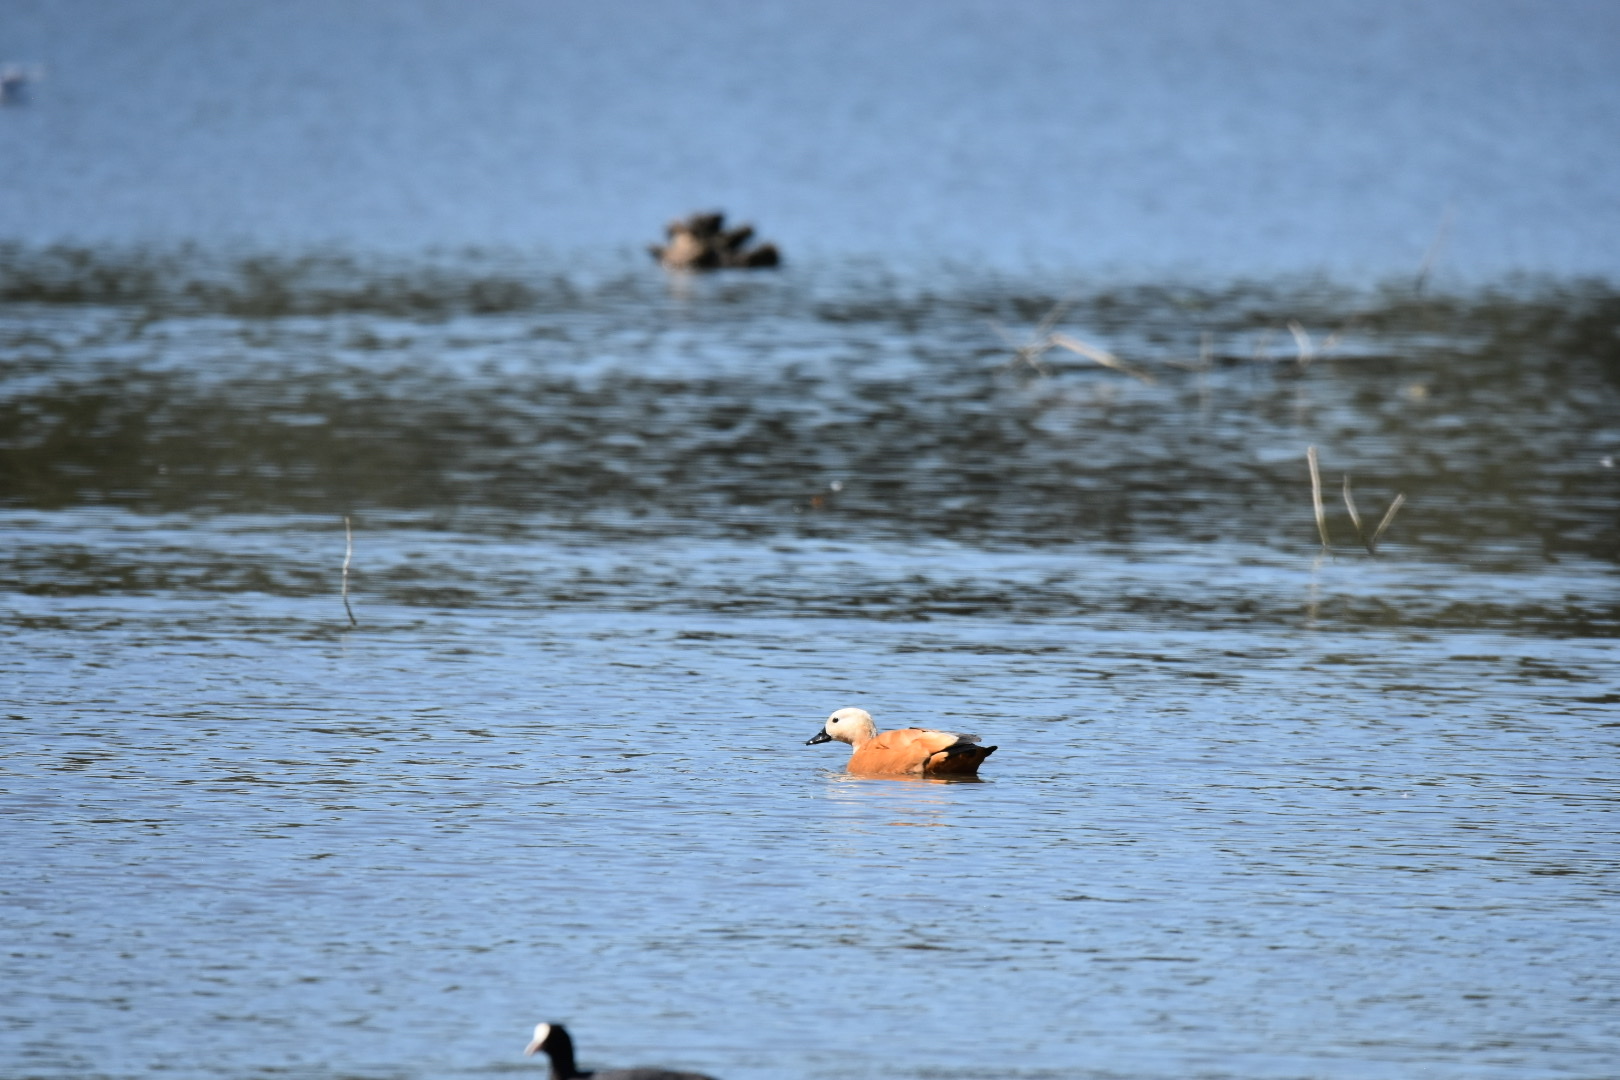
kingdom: Animalia
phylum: Chordata
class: Aves
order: Anseriformes
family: Anatidae
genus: Tadorna
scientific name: Tadorna ferruginea
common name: Ruddy shelduck
